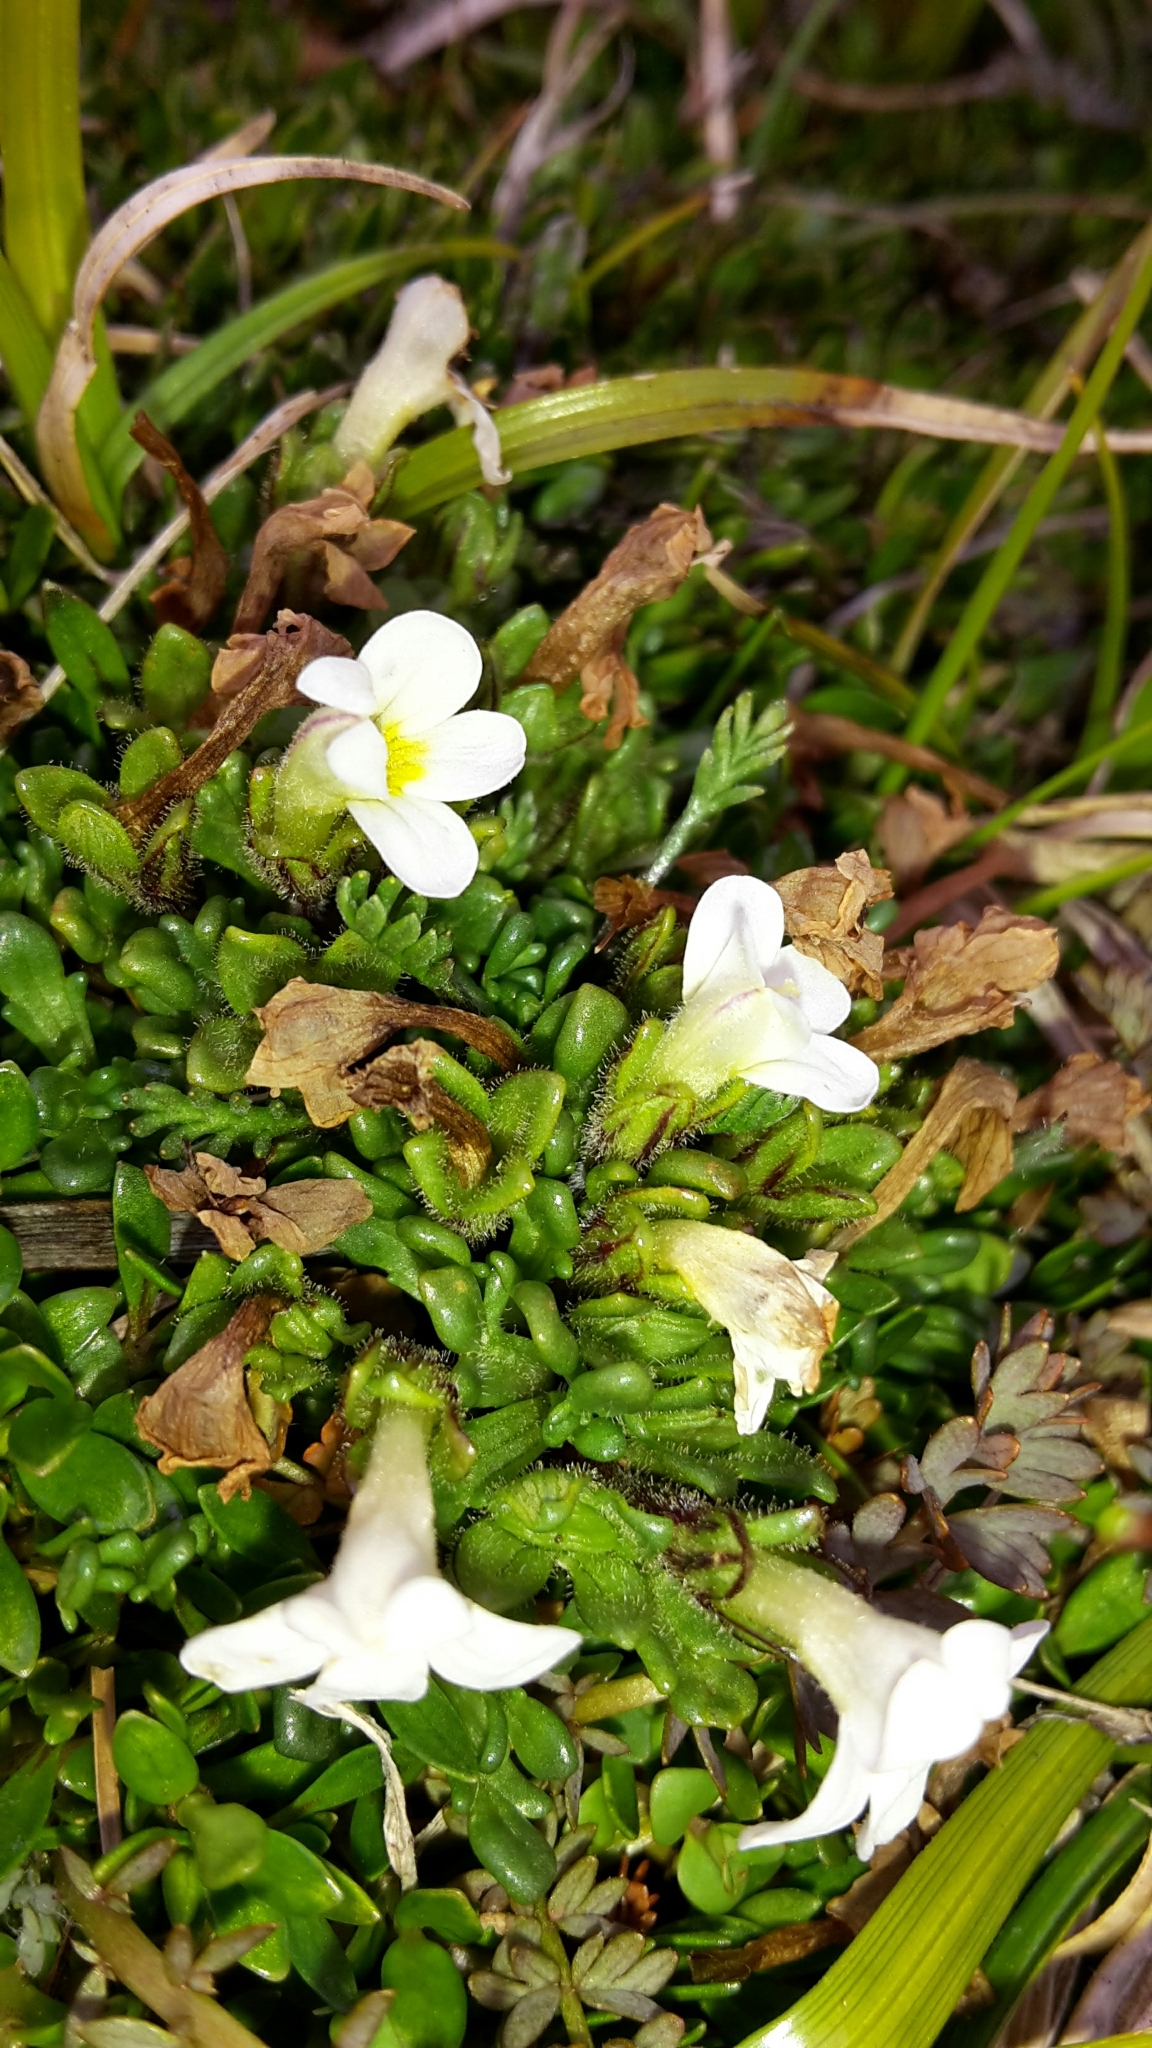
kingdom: Plantae
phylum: Tracheophyta
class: Magnoliopsida
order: Lamiales
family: Orobanchaceae
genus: Euphrasia
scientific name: Euphrasia petriei
